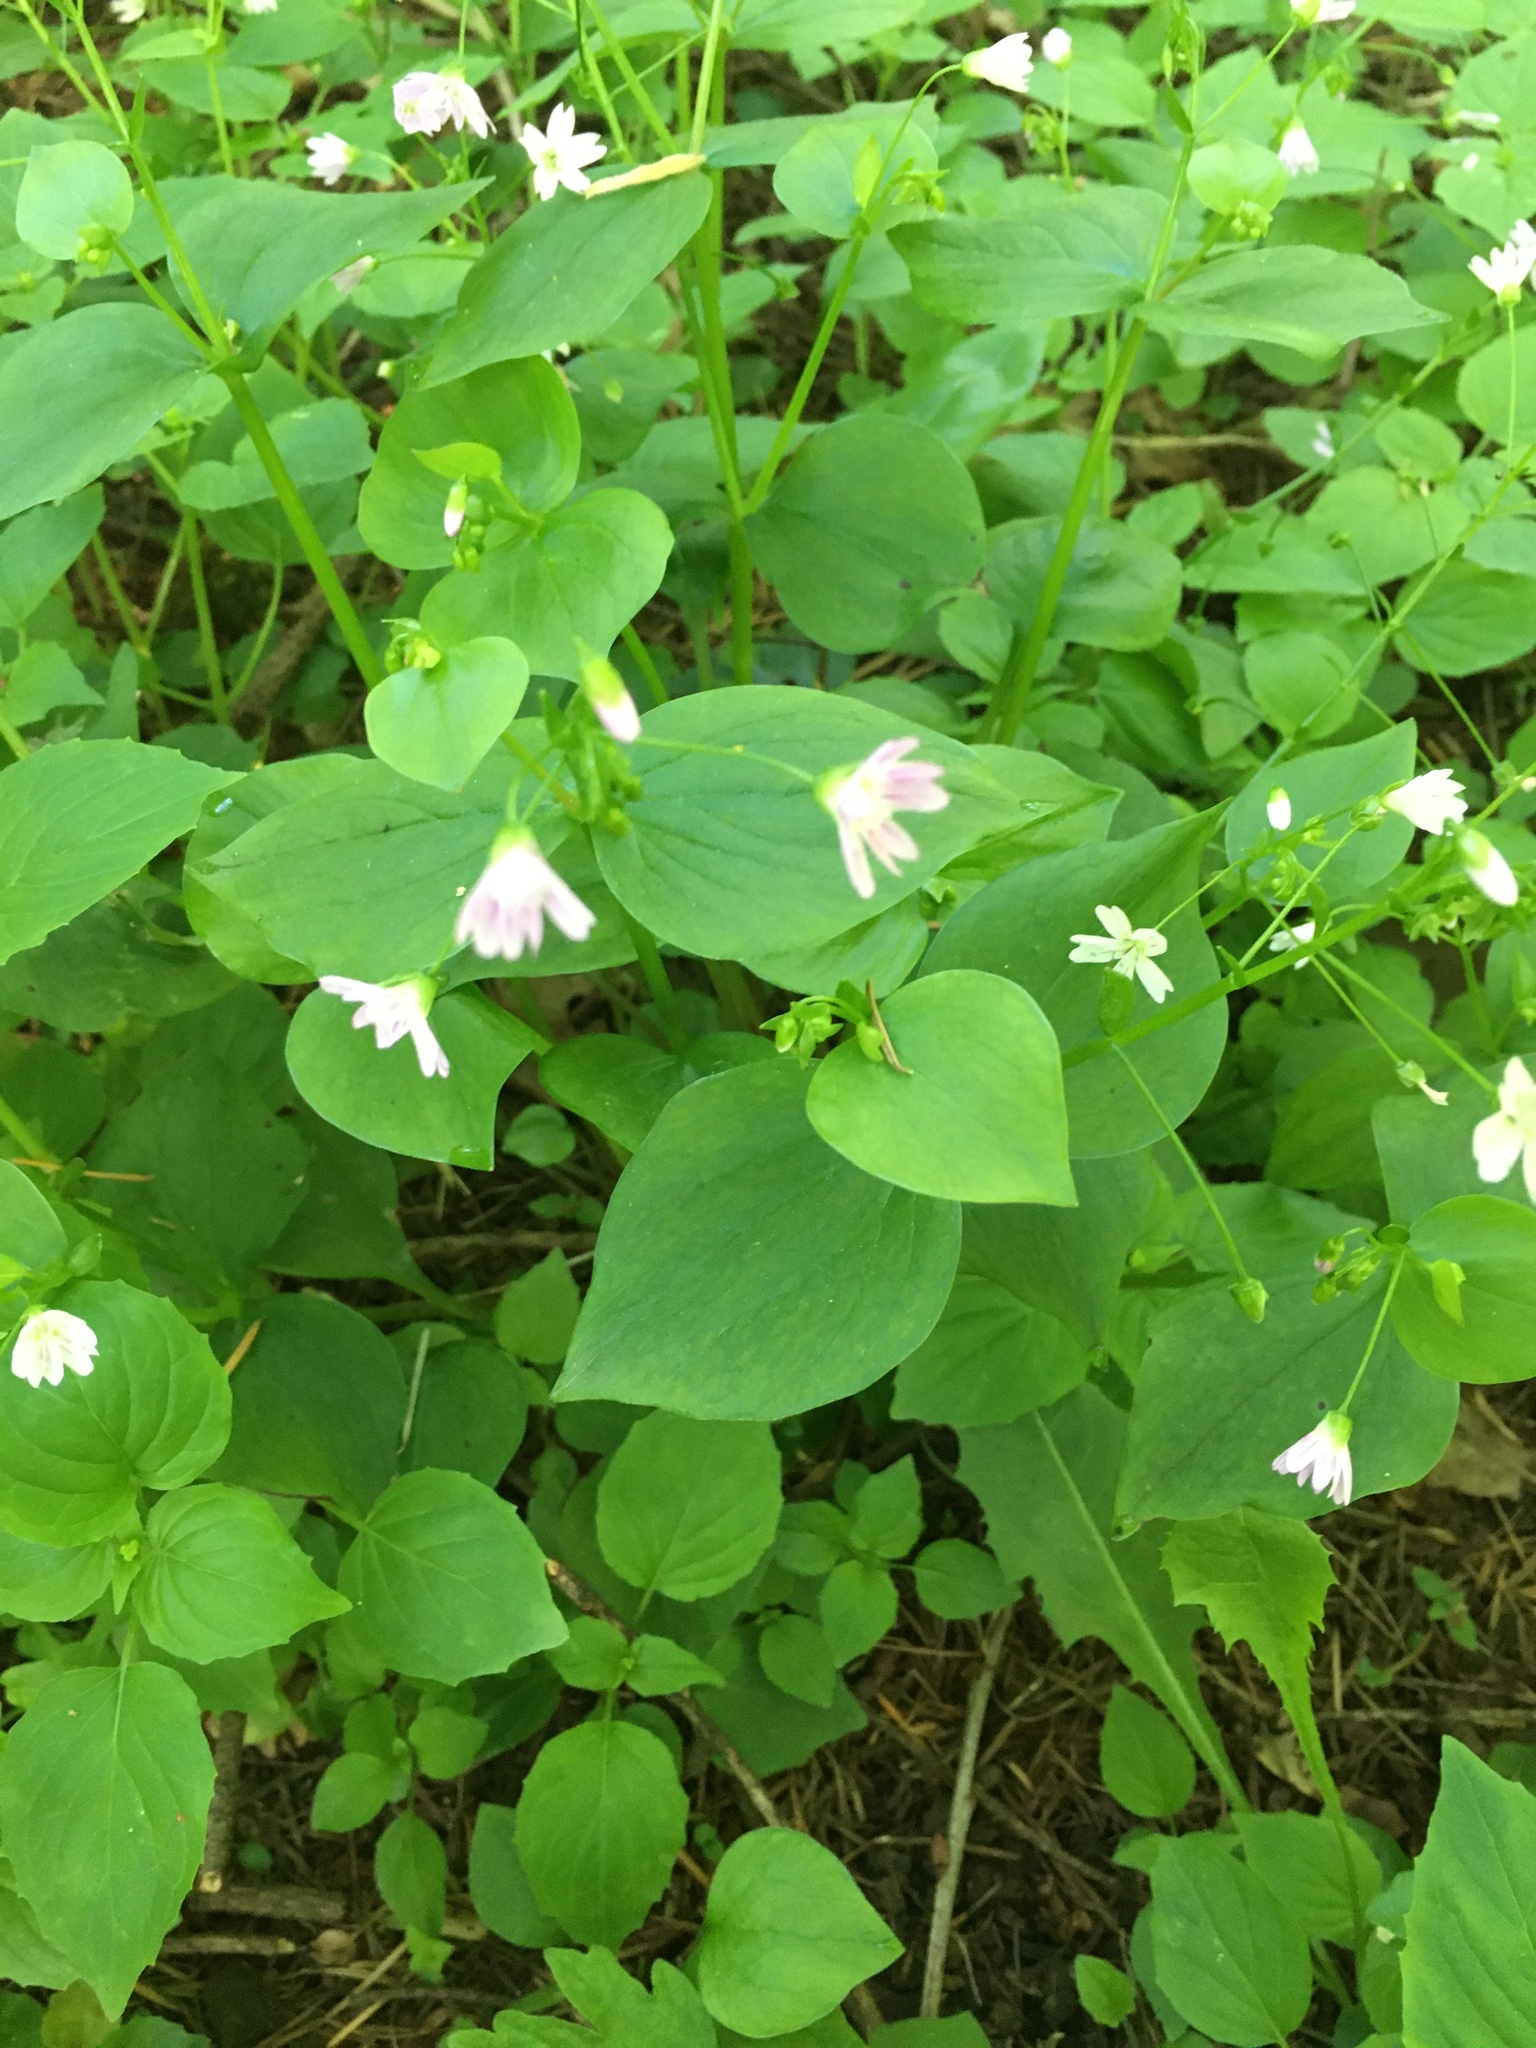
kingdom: Plantae
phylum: Tracheophyta
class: Magnoliopsida
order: Caryophyllales
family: Montiaceae
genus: Claytonia
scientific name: Claytonia sibirica
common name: Pink purslane
